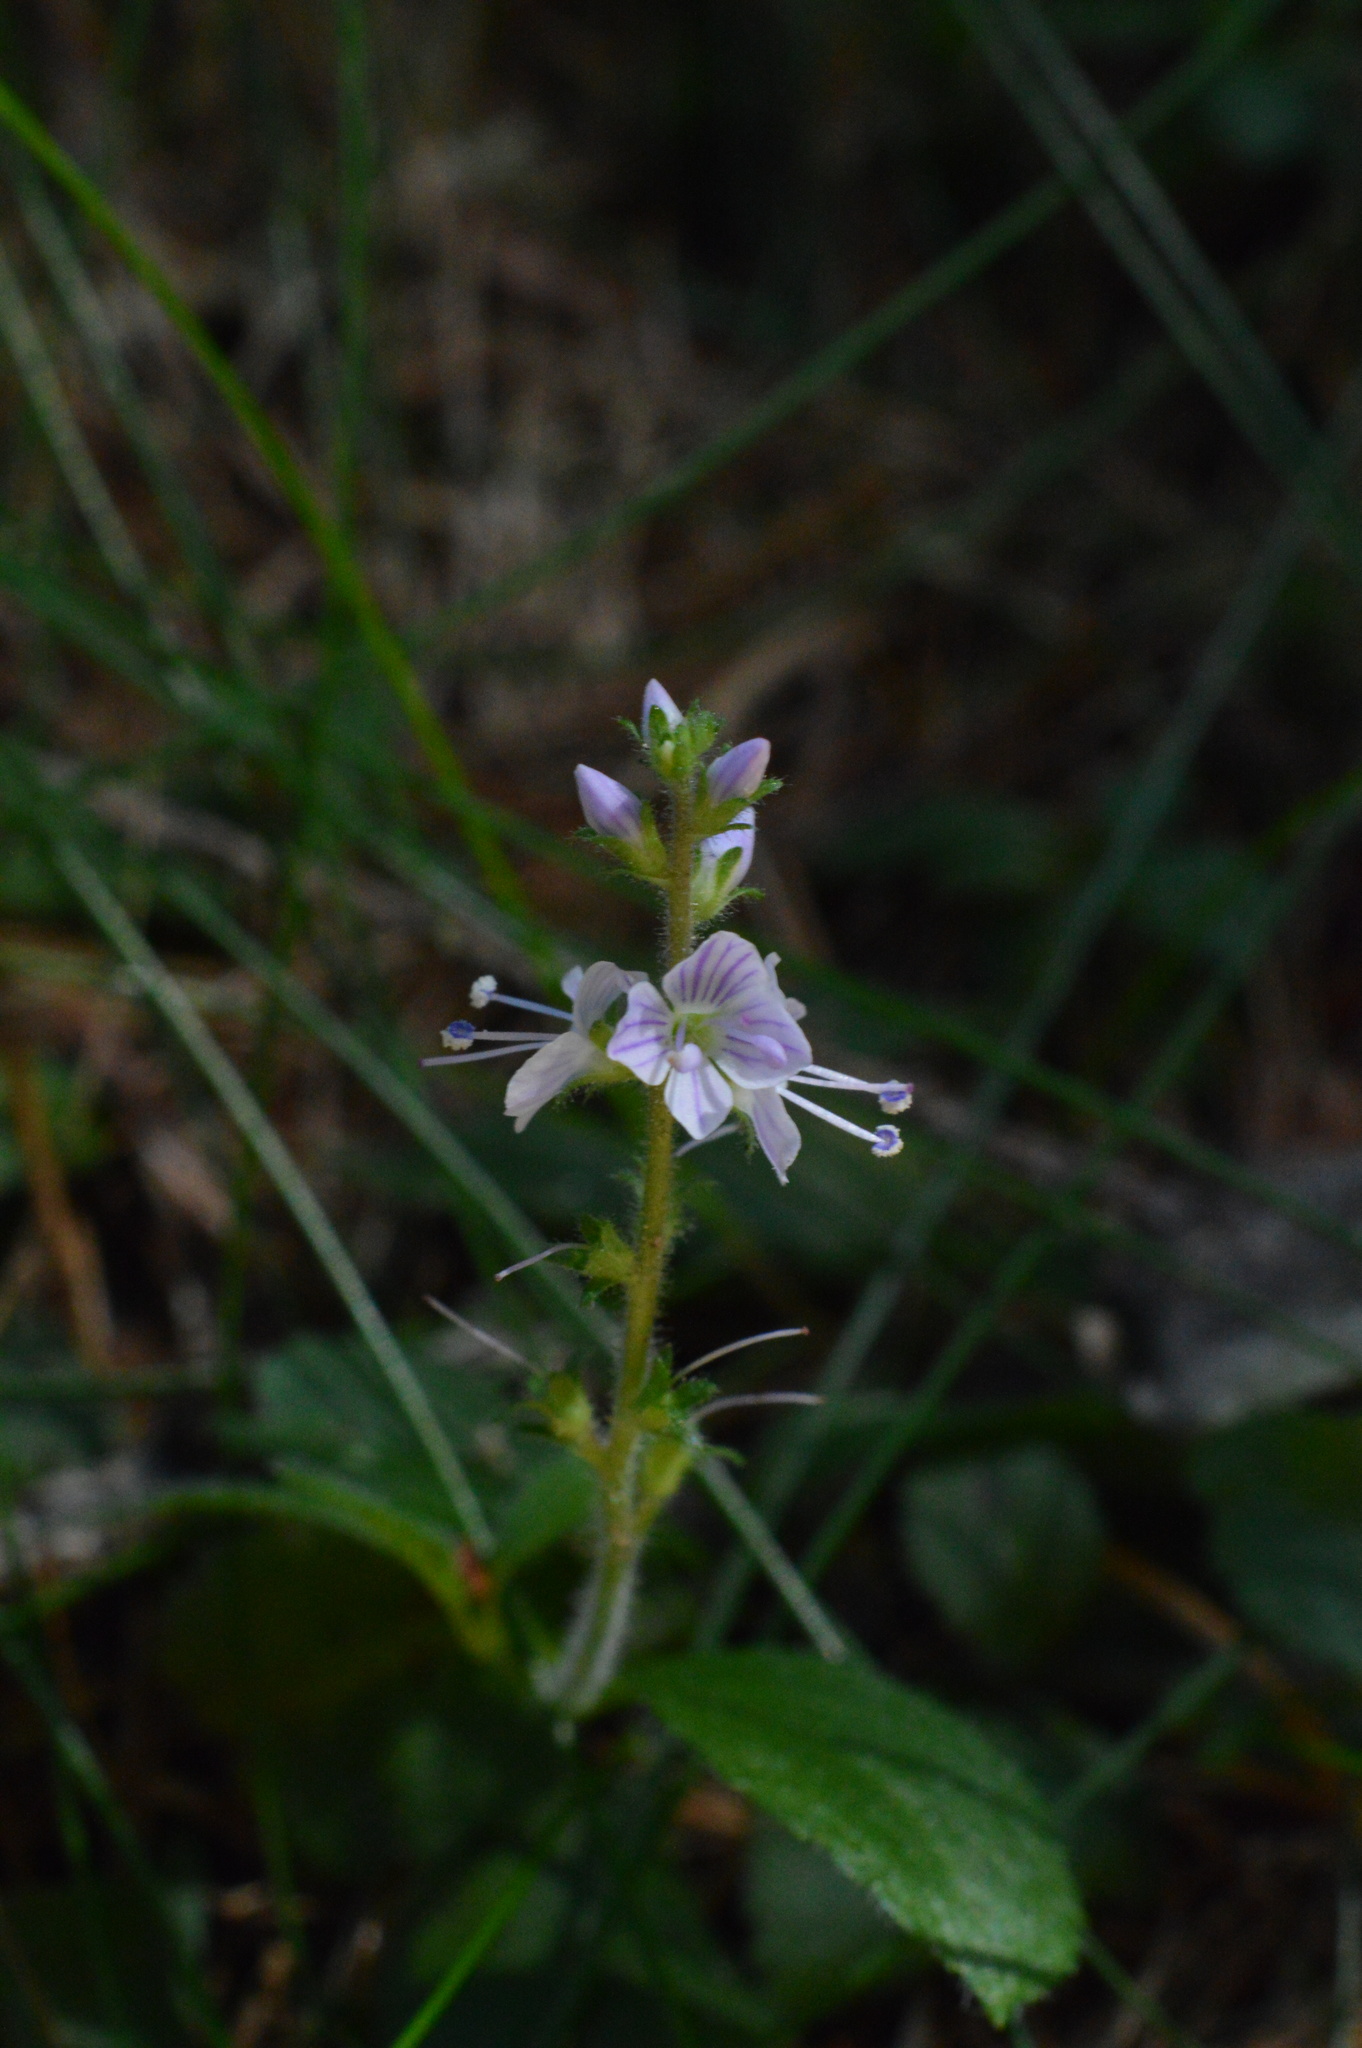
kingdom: Plantae
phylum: Tracheophyta
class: Magnoliopsida
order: Lamiales
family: Plantaginaceae
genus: Veronica
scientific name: Veronica officinalis
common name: Common speedwell
